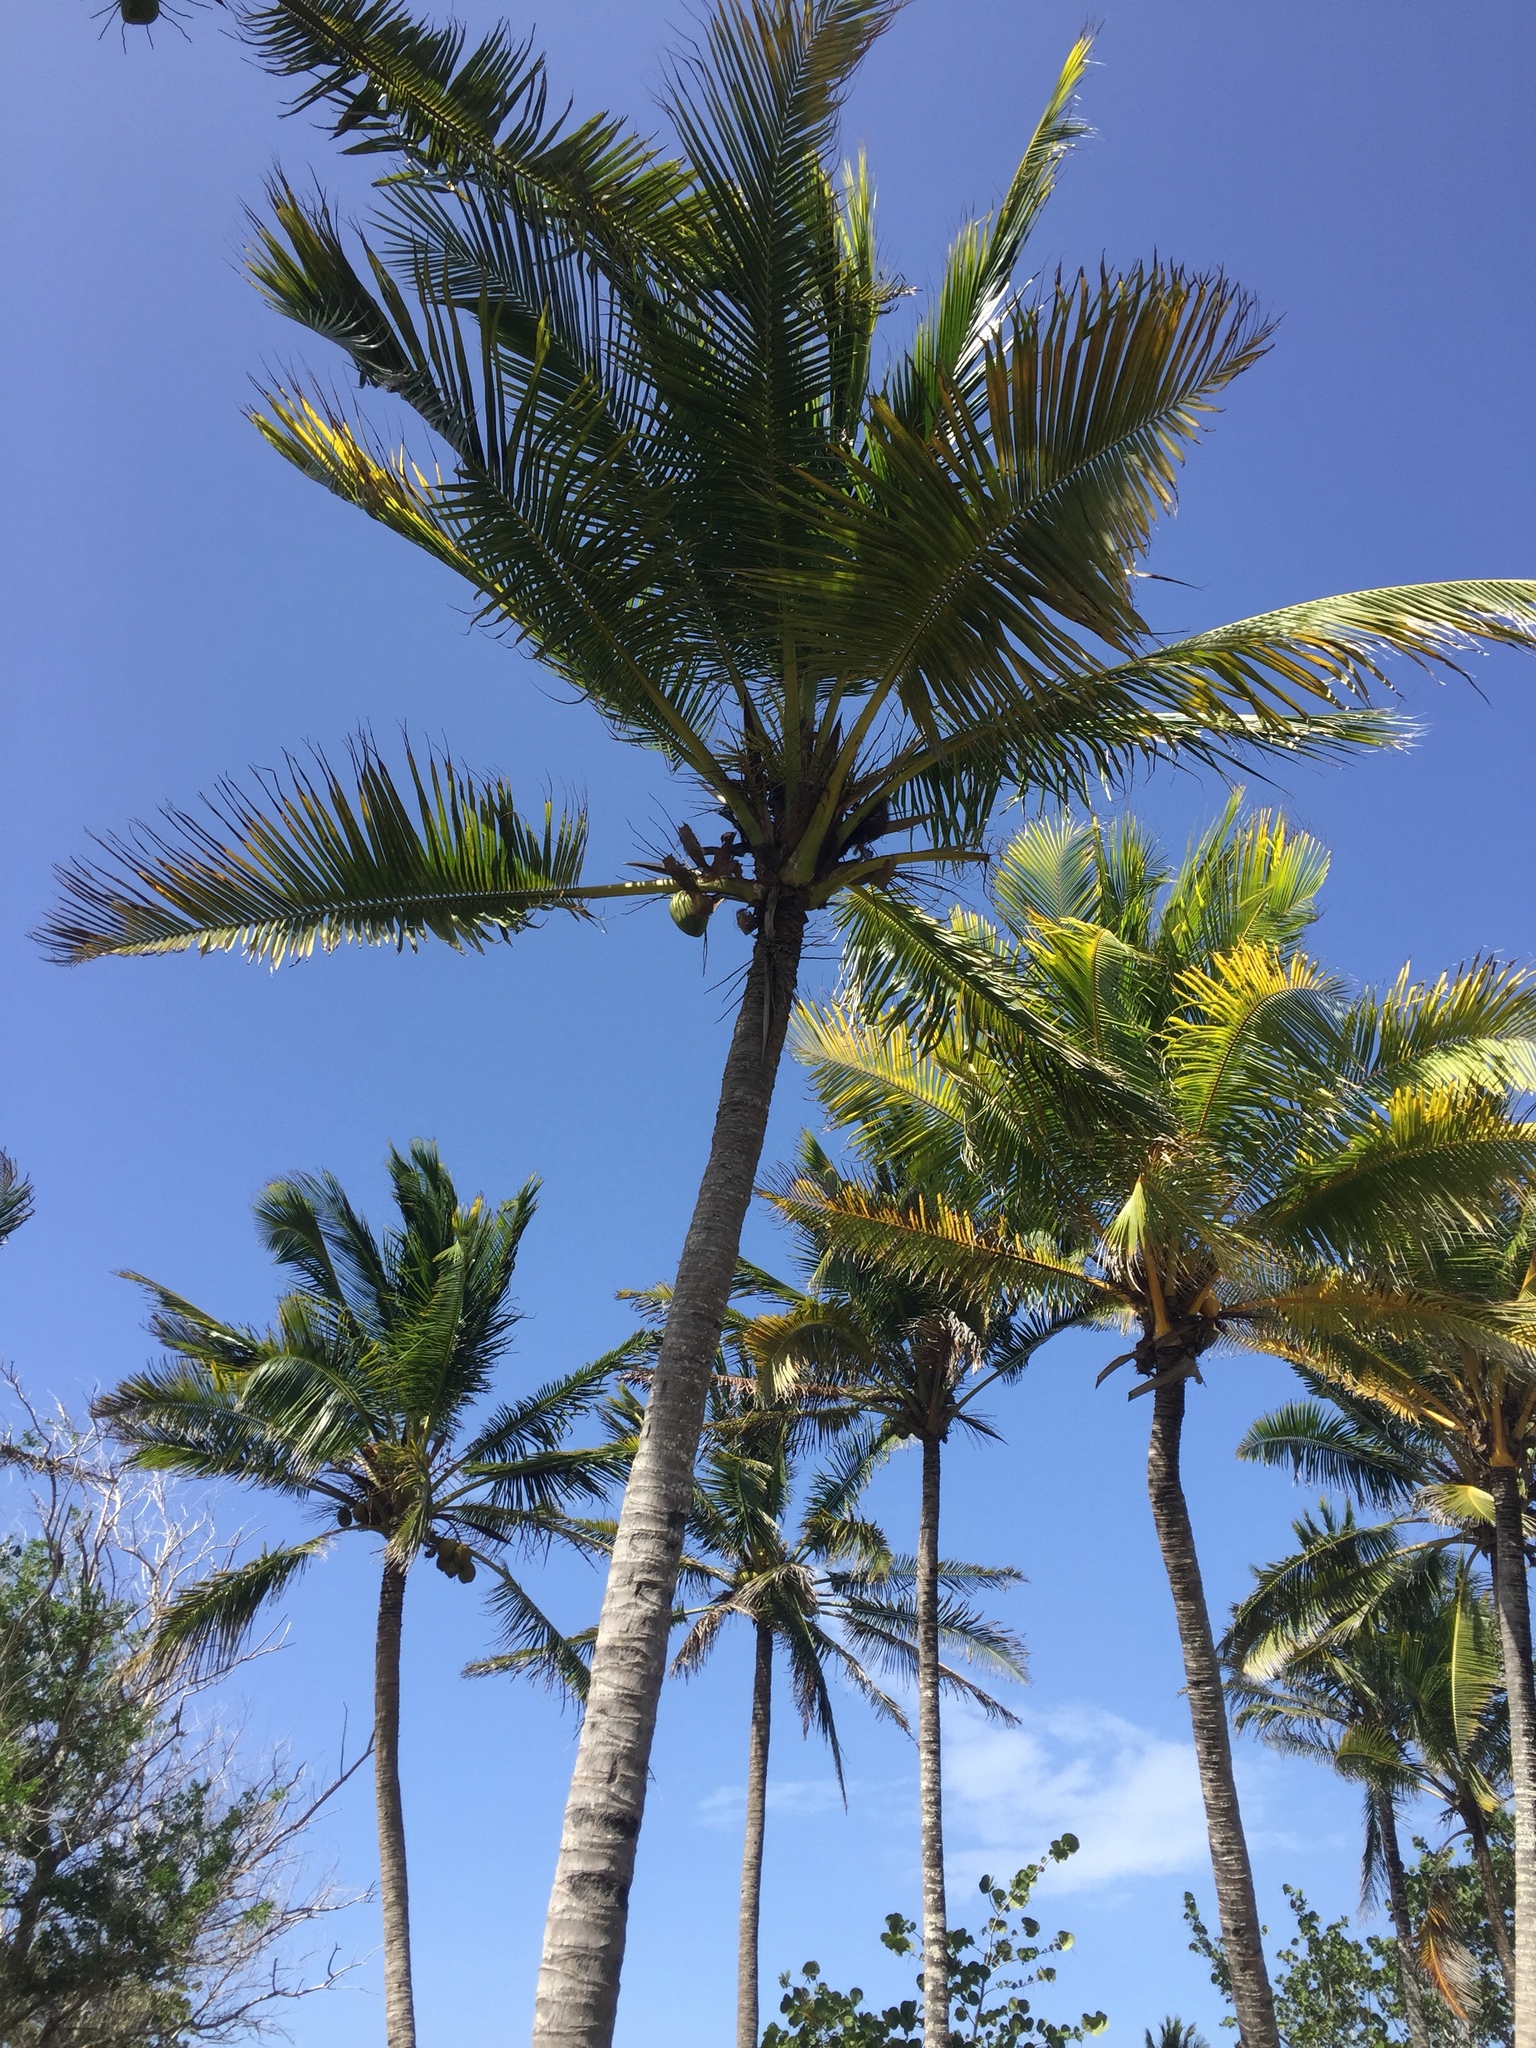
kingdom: Plantae
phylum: Tracheophyta
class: Liliopsida
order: Arecales
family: Arecaceae
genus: Cocos
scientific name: Cocos nucifera
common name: Coconut palm
